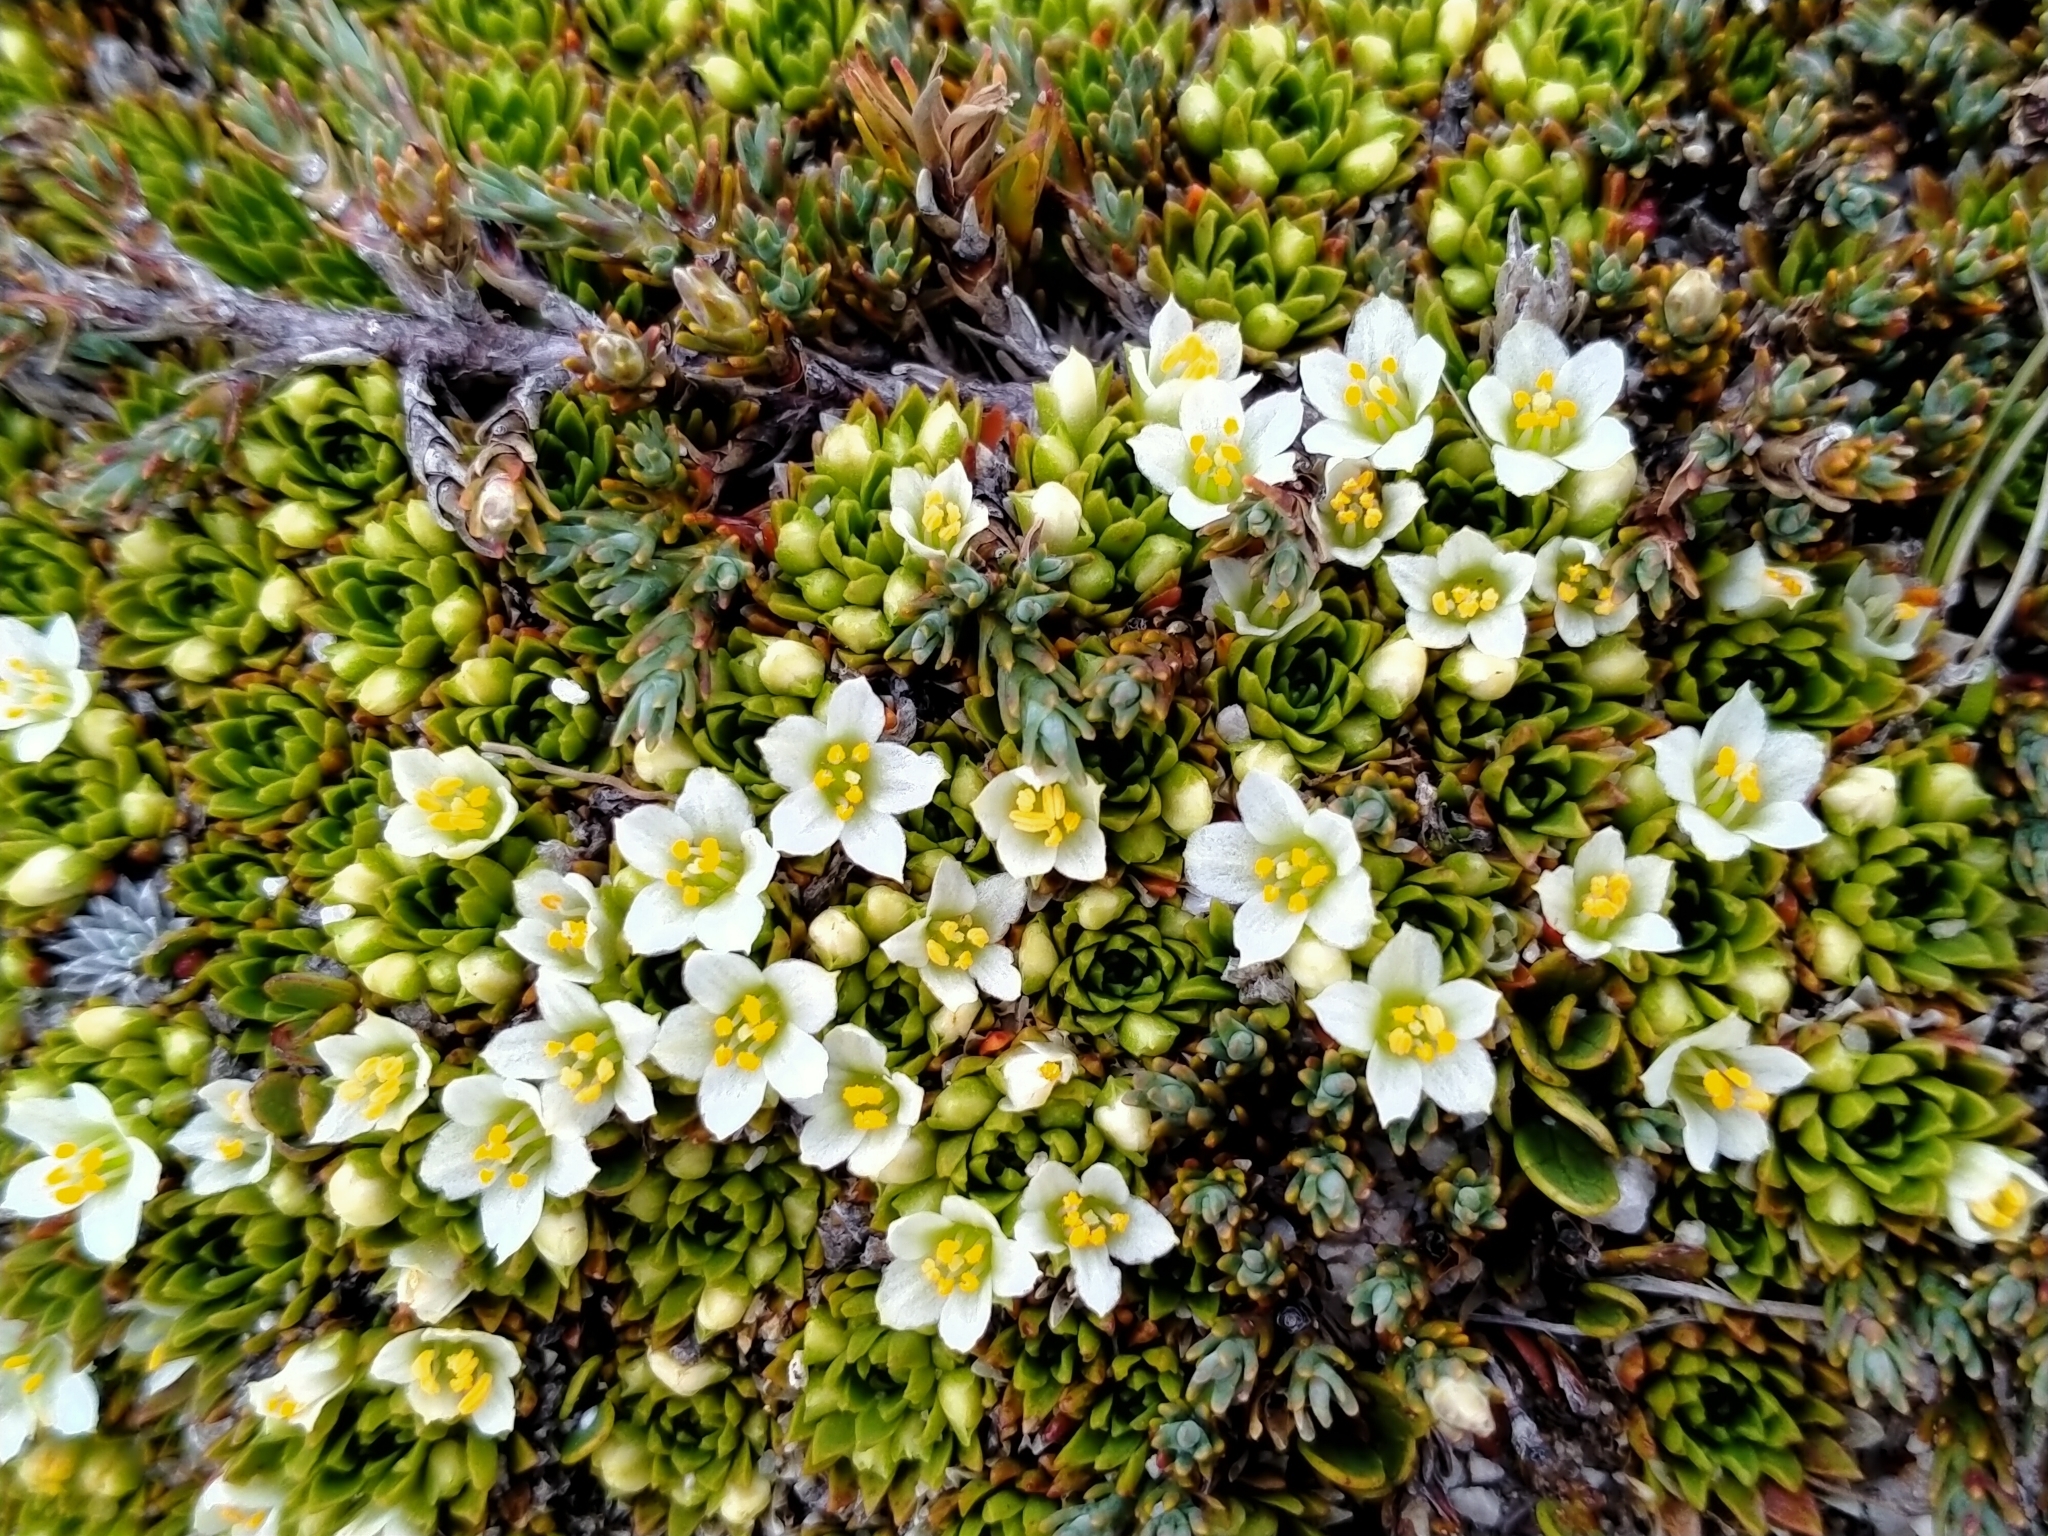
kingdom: Plantae
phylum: Tracheophyta
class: Magnoliopsida
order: Caryophyllales
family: Montiaceae
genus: Hectorella
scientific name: Hectorella caespitosa
